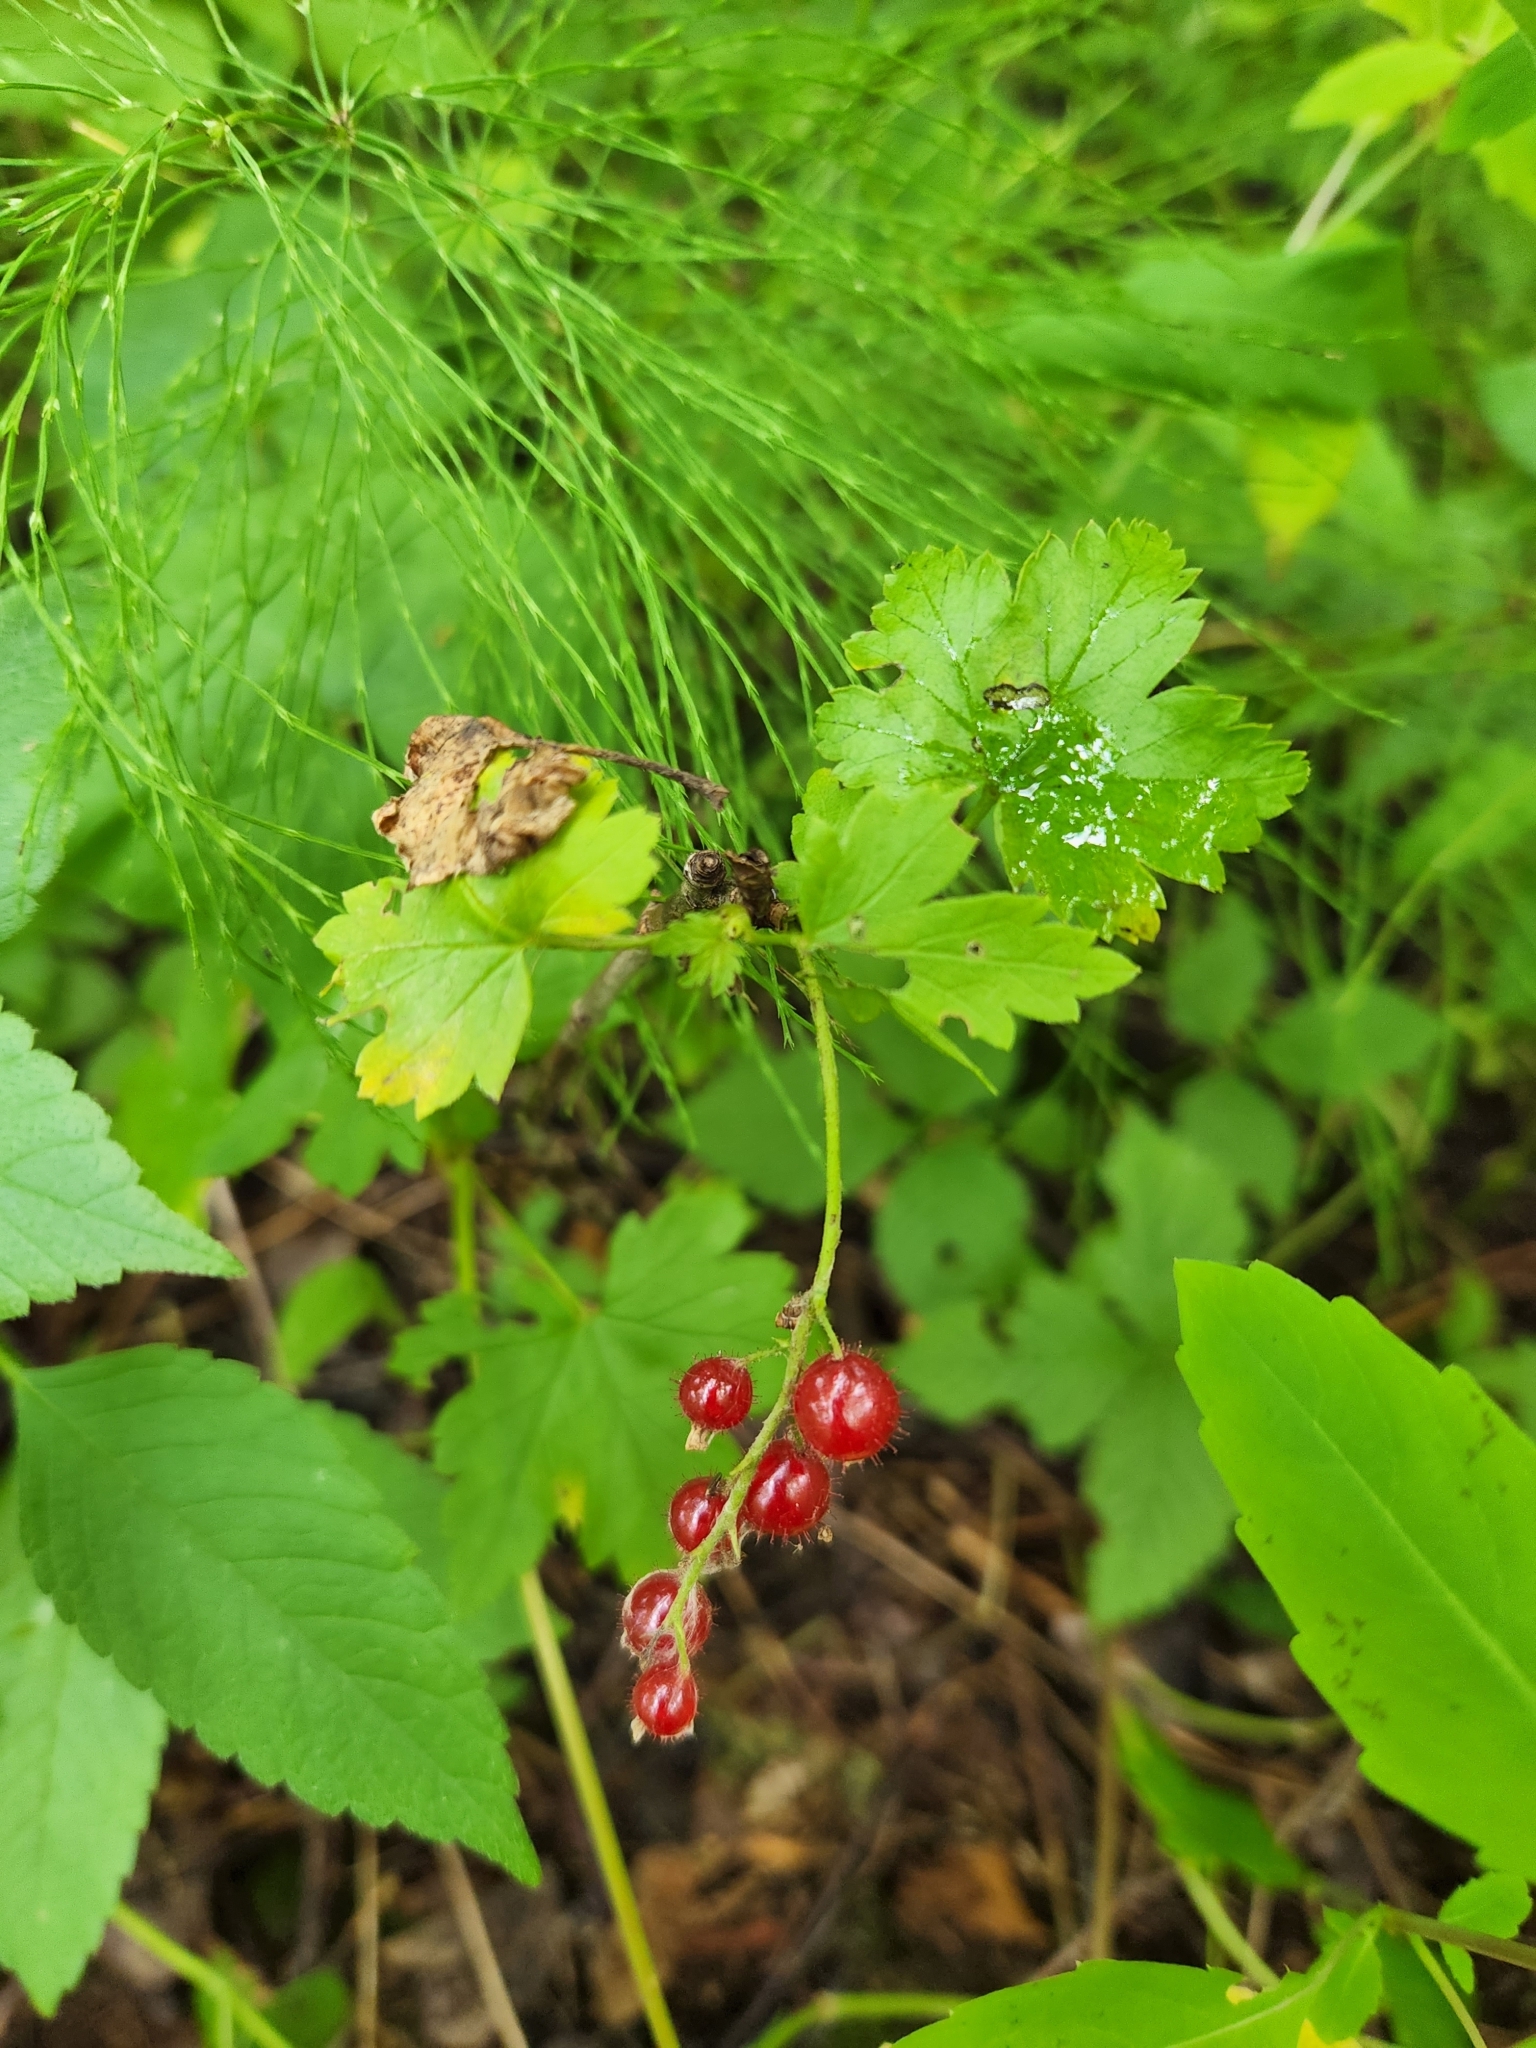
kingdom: Plantae
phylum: Tracheophyta
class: Magnoliopsida
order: Saxifragales
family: Grossulariaceae
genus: Ribes
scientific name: Ribes glandulosum
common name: Skunk currant
